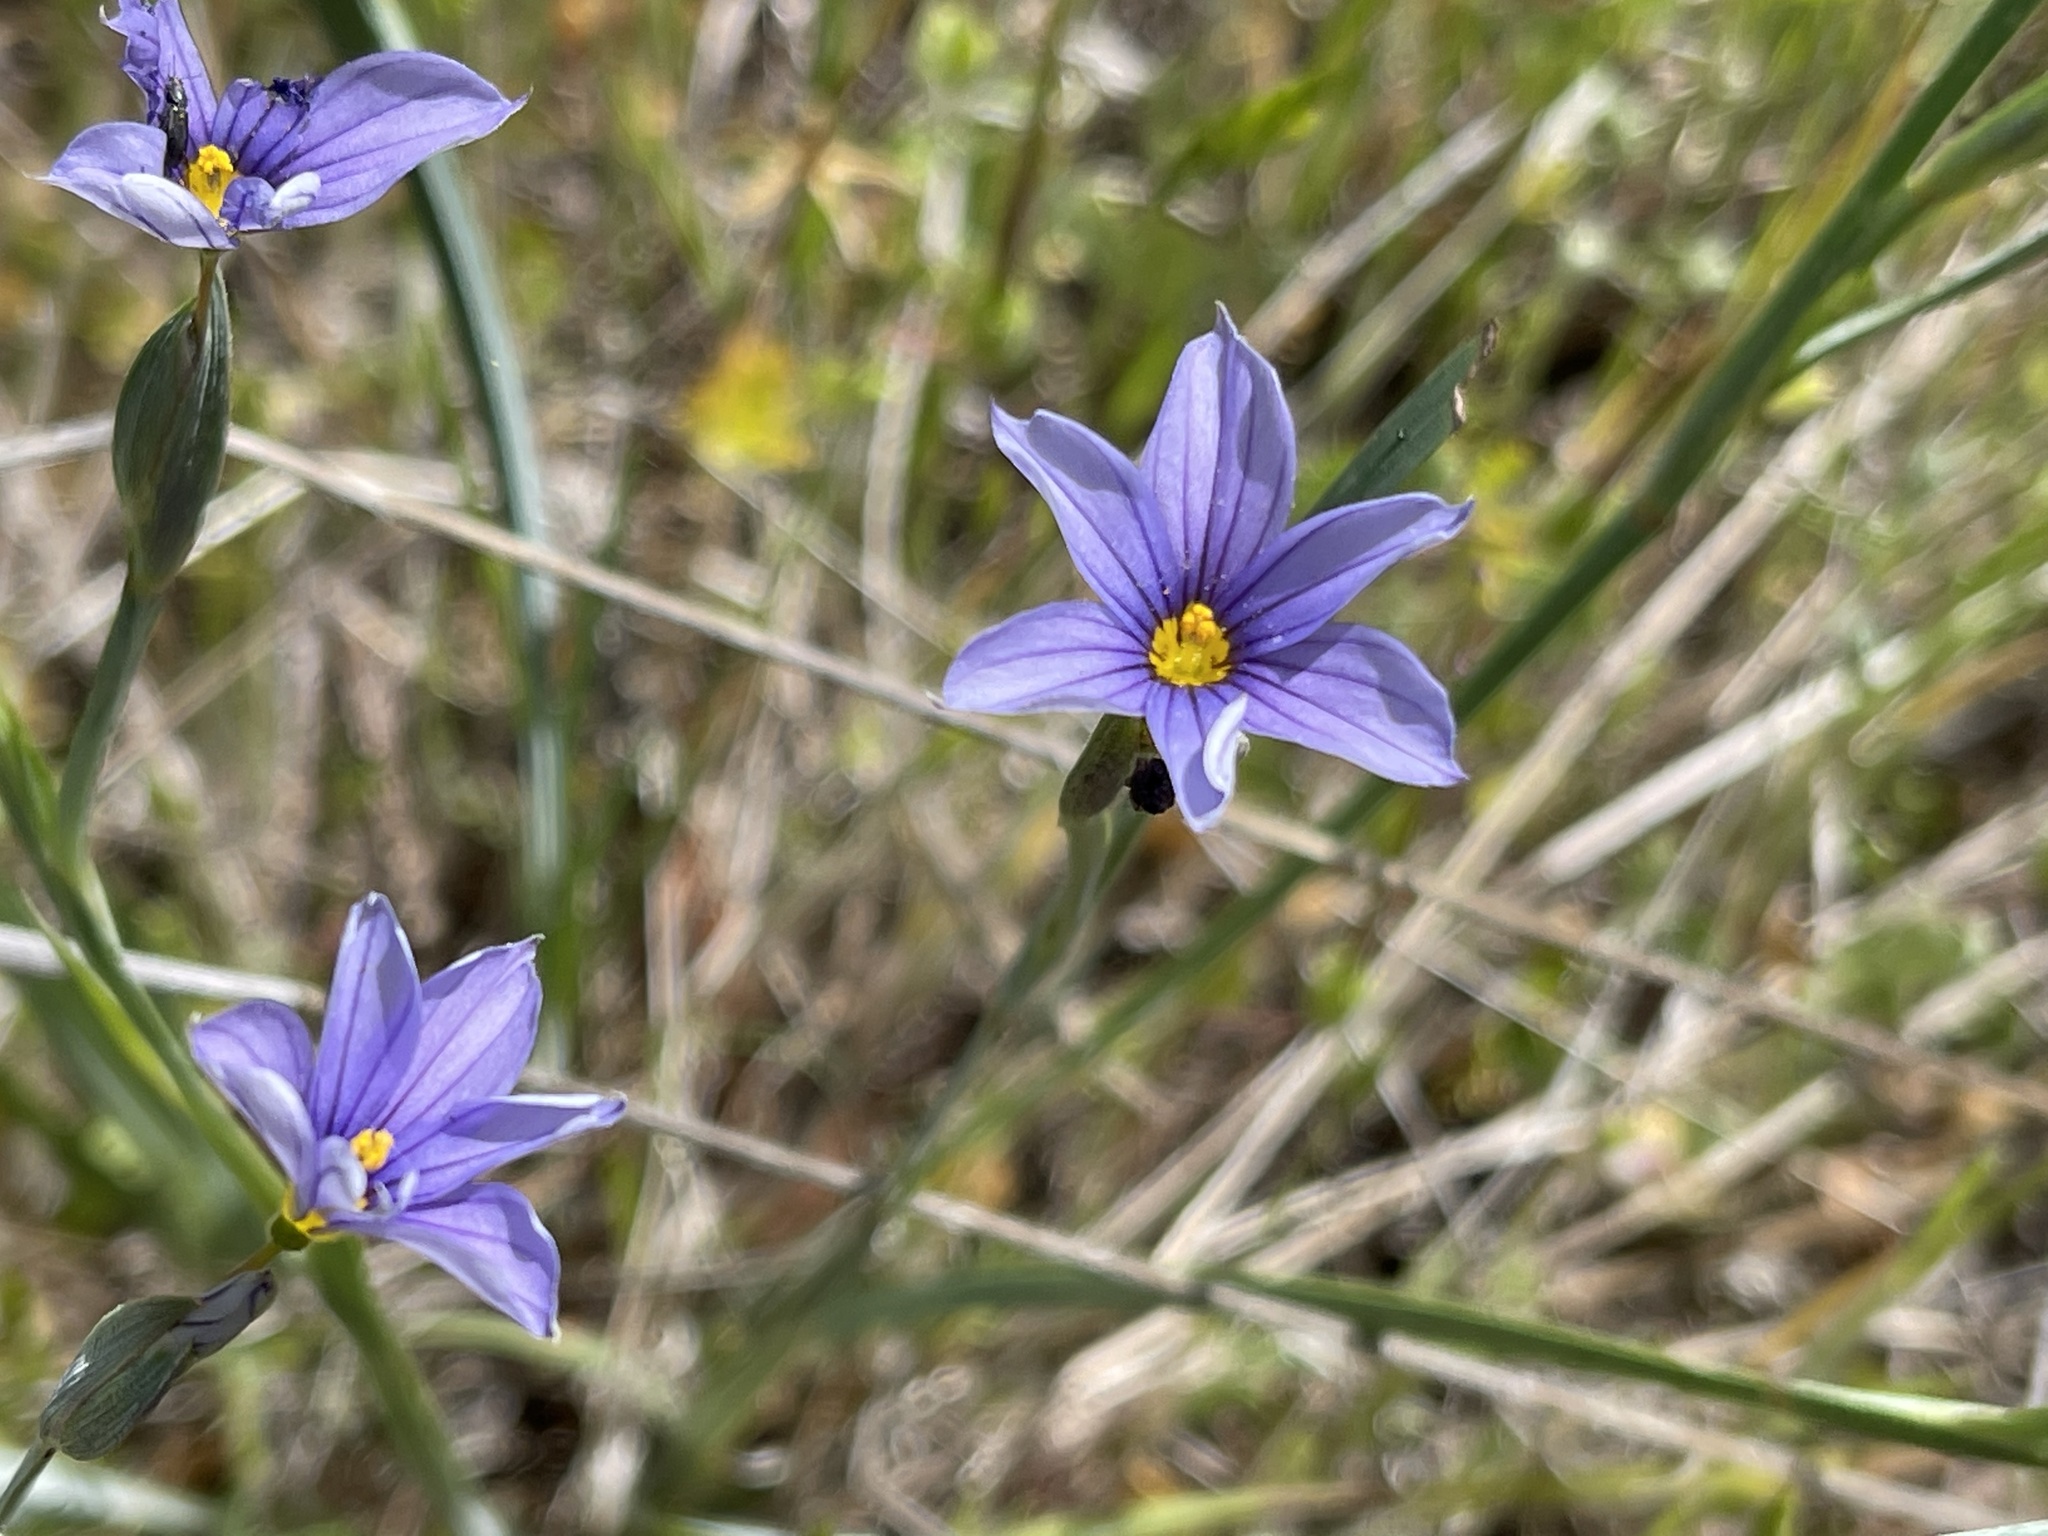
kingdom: Plantae
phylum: Tracheophyta
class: Liliopsida
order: Asparagales
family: Iridaceae
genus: Sisyrinchium
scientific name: Sisyrinchium bellum
